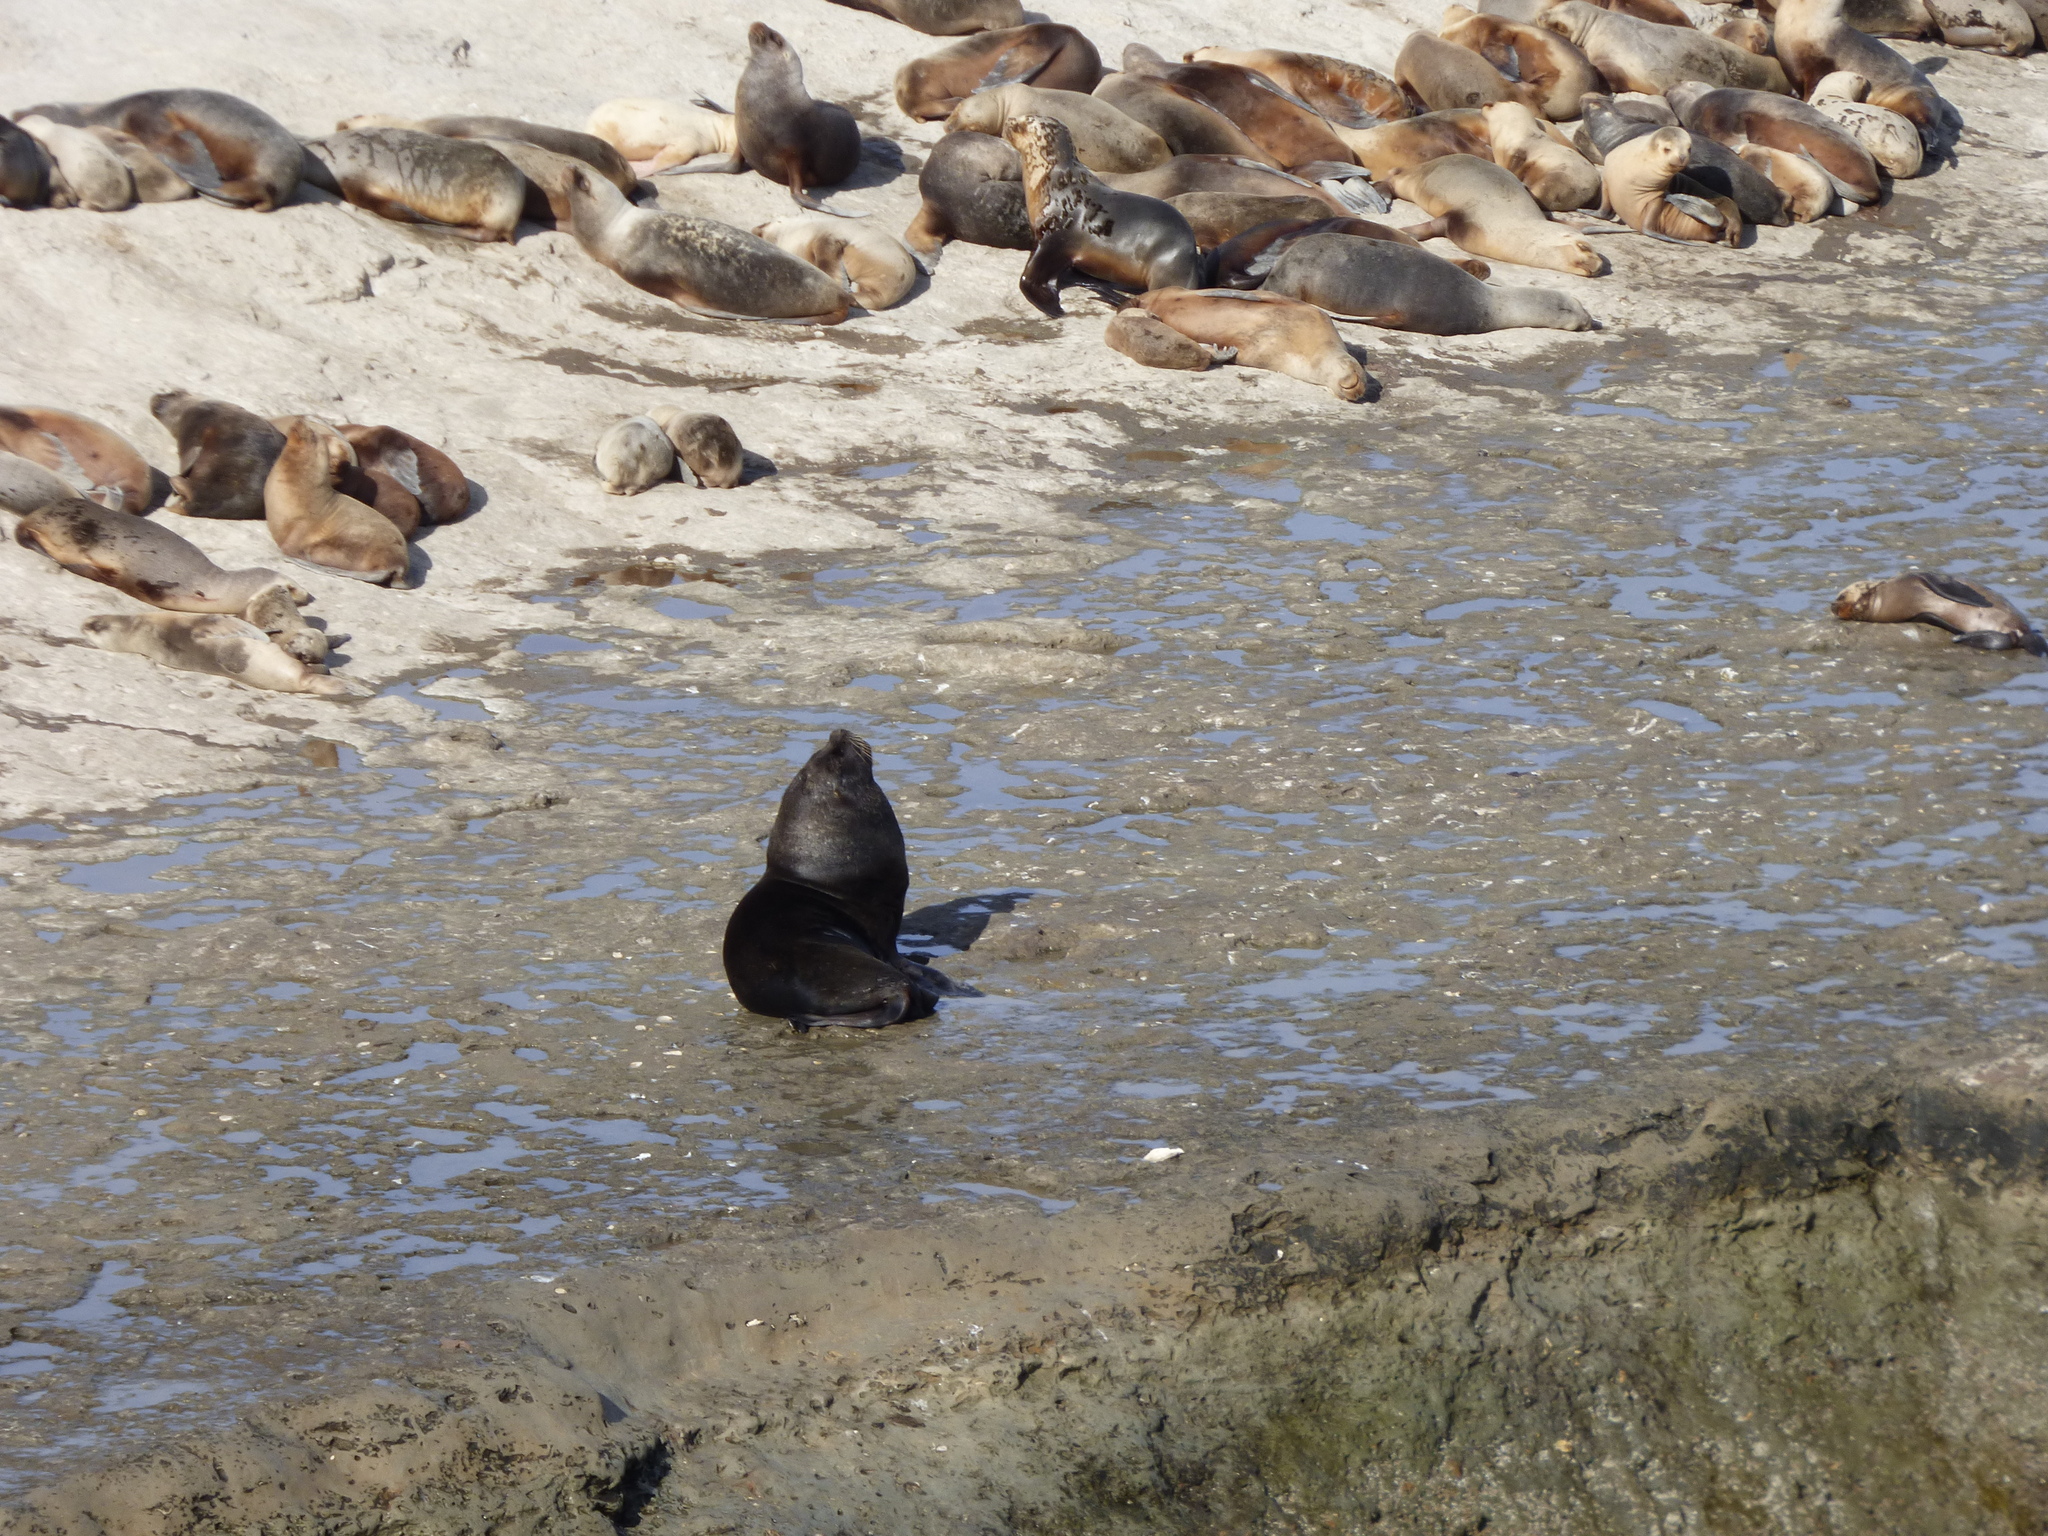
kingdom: Animalia
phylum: Chordata
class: Mammalia
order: Carnivora
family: Otariidae
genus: Otaria
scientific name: Otaria byronia
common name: South american sea lion
